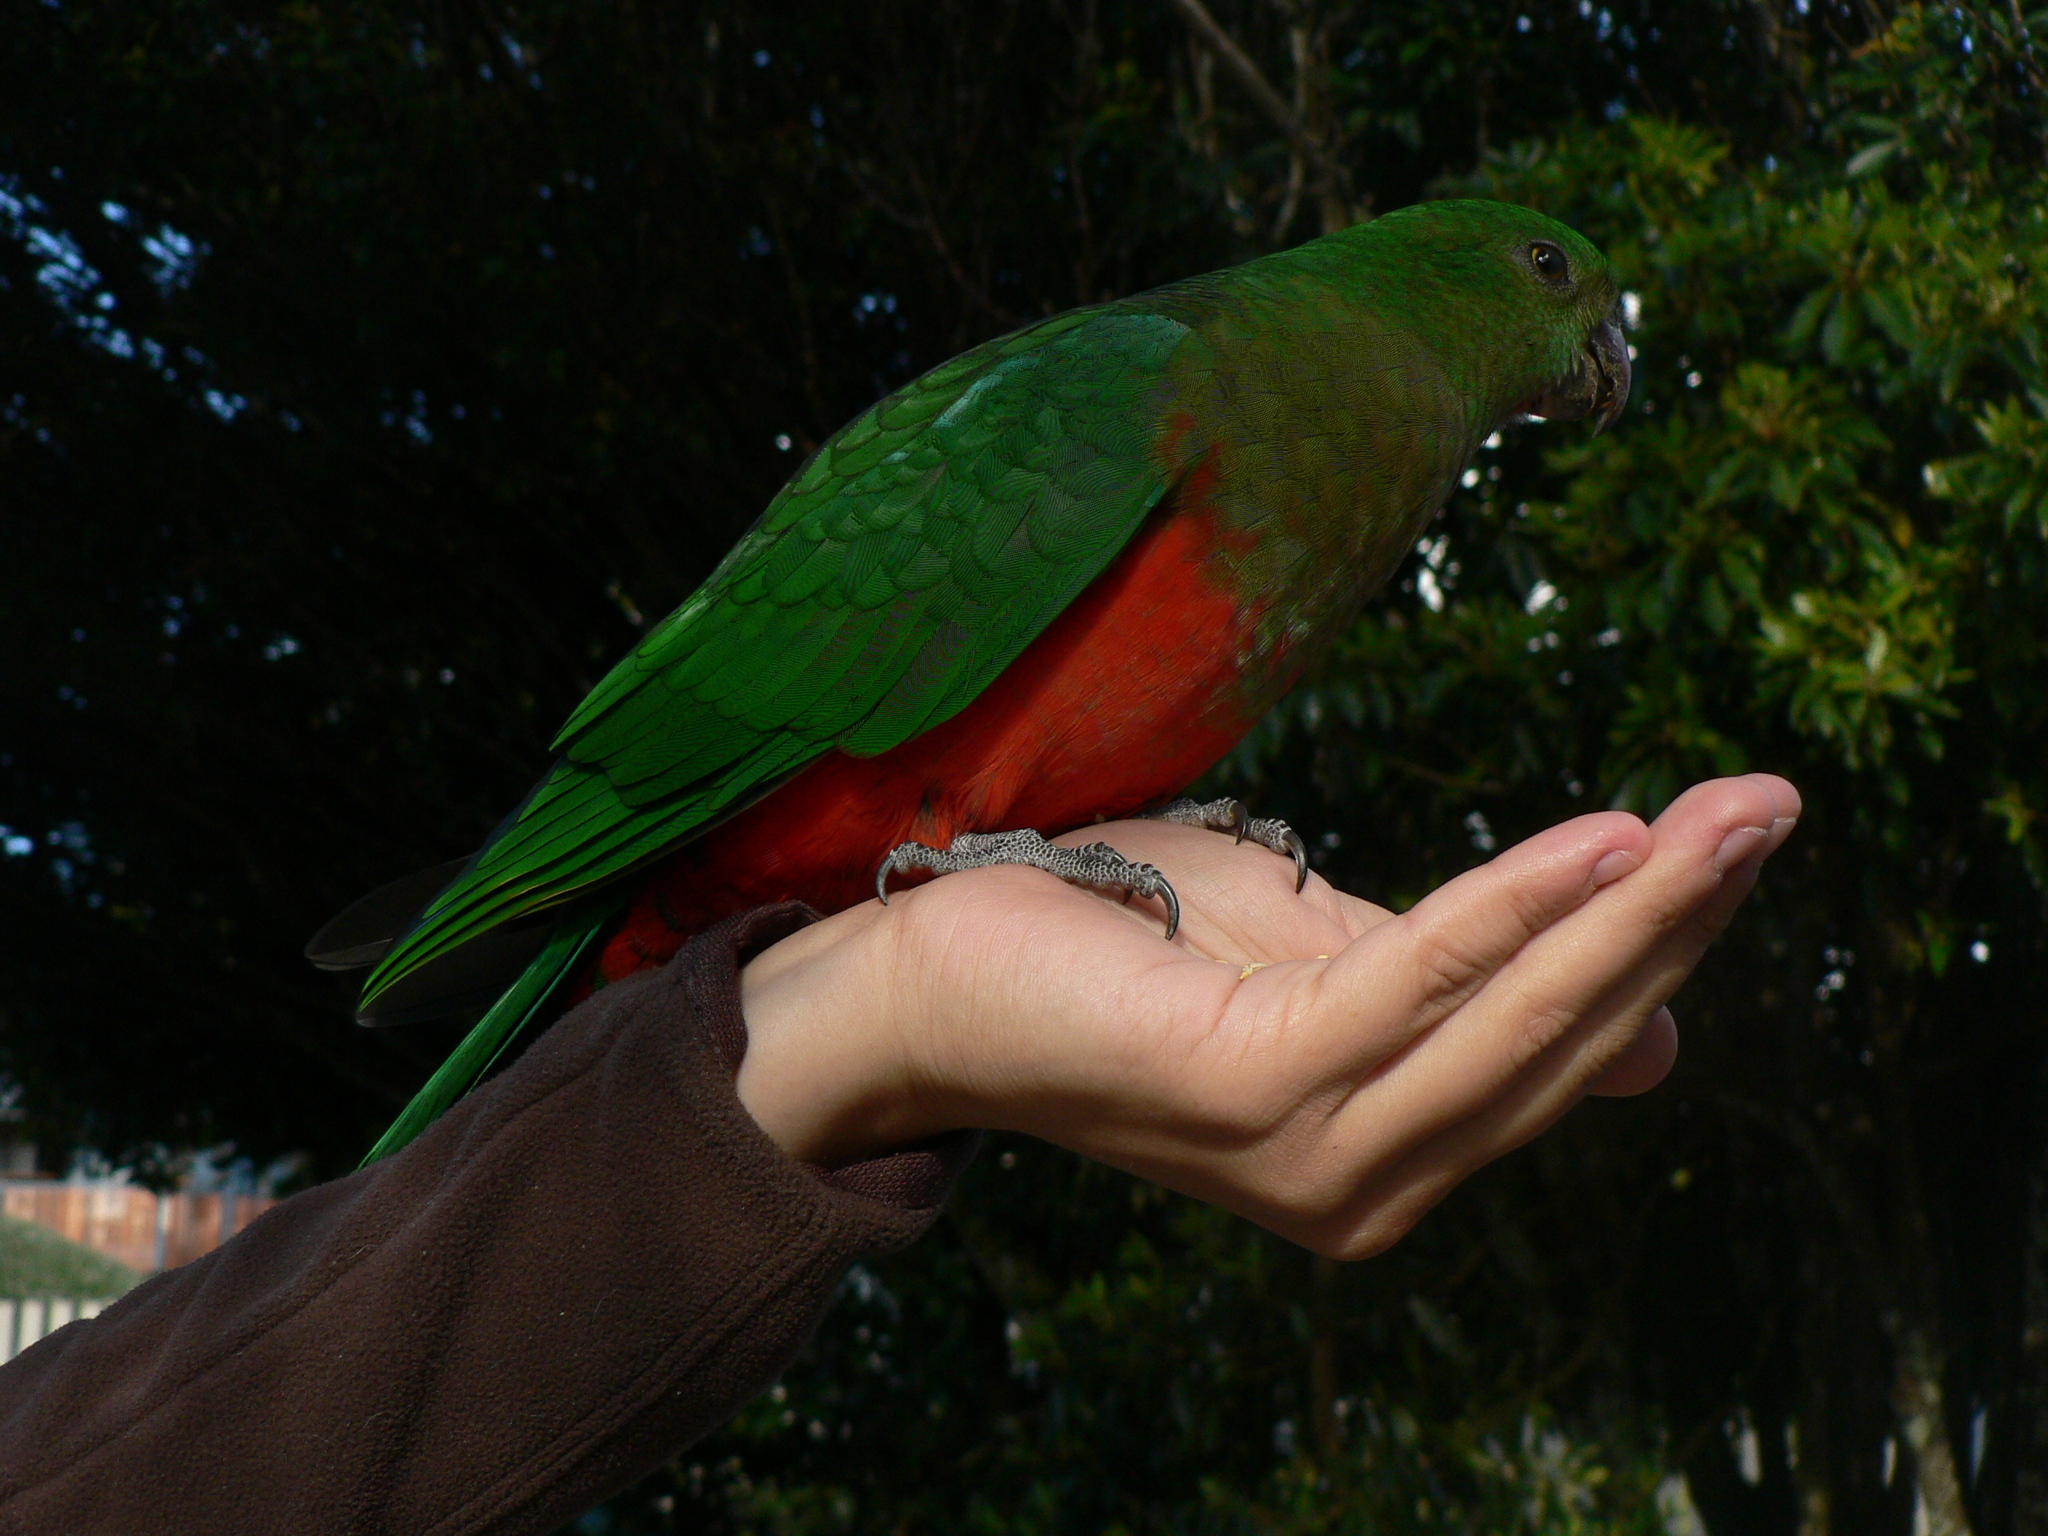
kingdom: Animalia
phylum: Chordata
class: Aves
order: Psittaciformes
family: Psittacidae
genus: Alisterus
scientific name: Alisterus scapularis
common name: Australian king parrot
